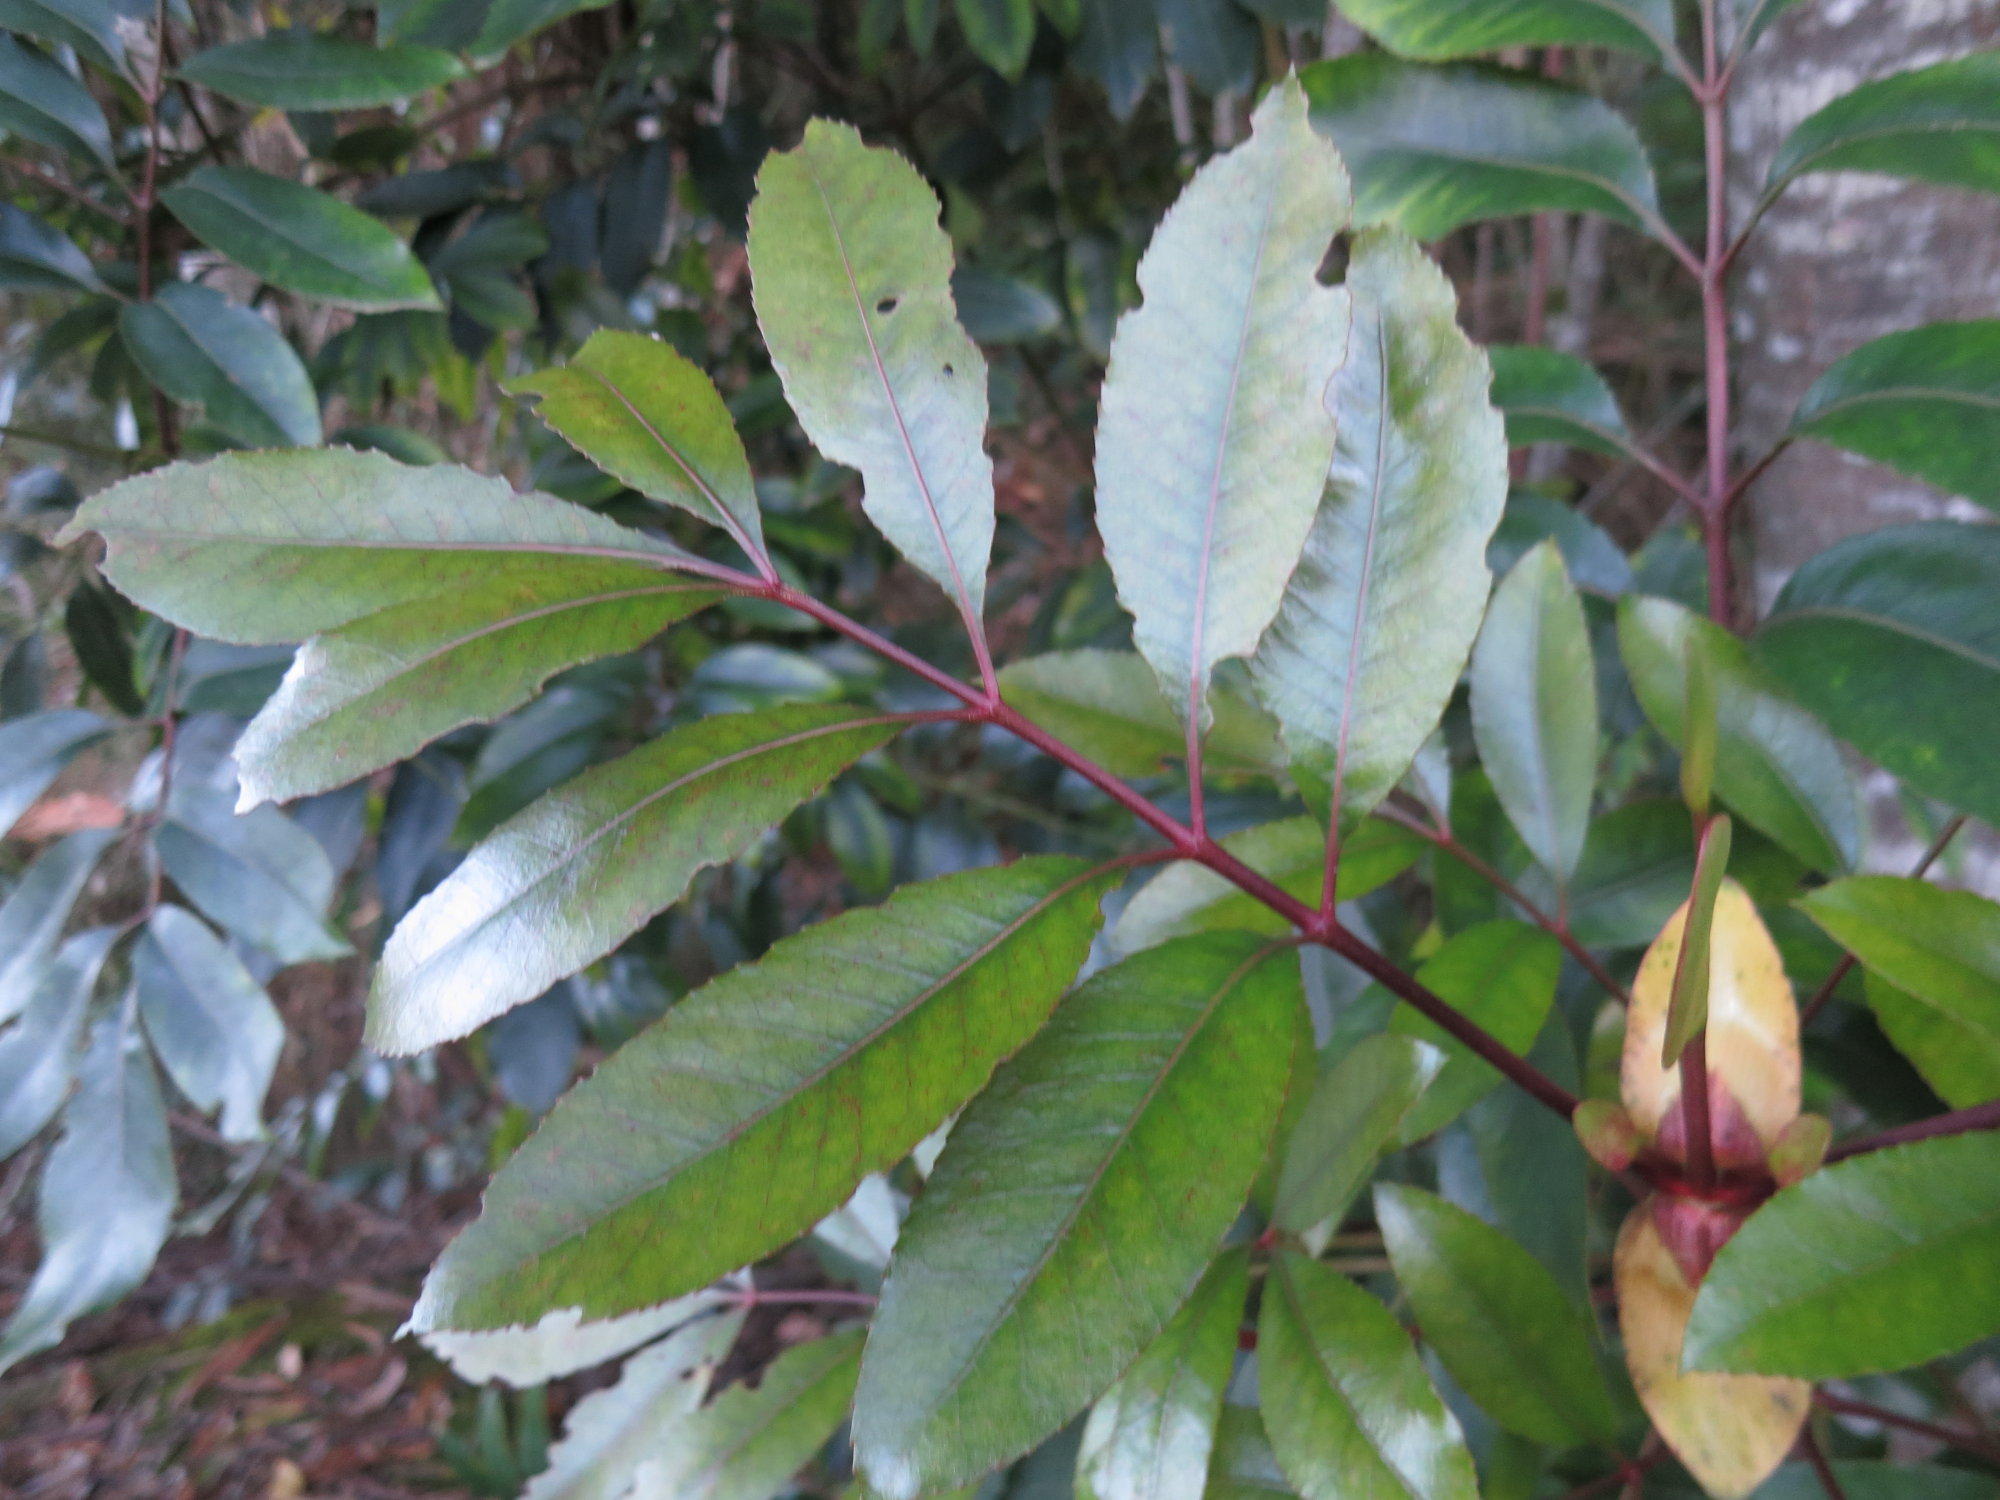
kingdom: Plantae
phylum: Tracheophyta
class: Magnoliopsida
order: Oxalidales
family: Cunoniaceae
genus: Cunonia
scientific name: Cunonia capensis
